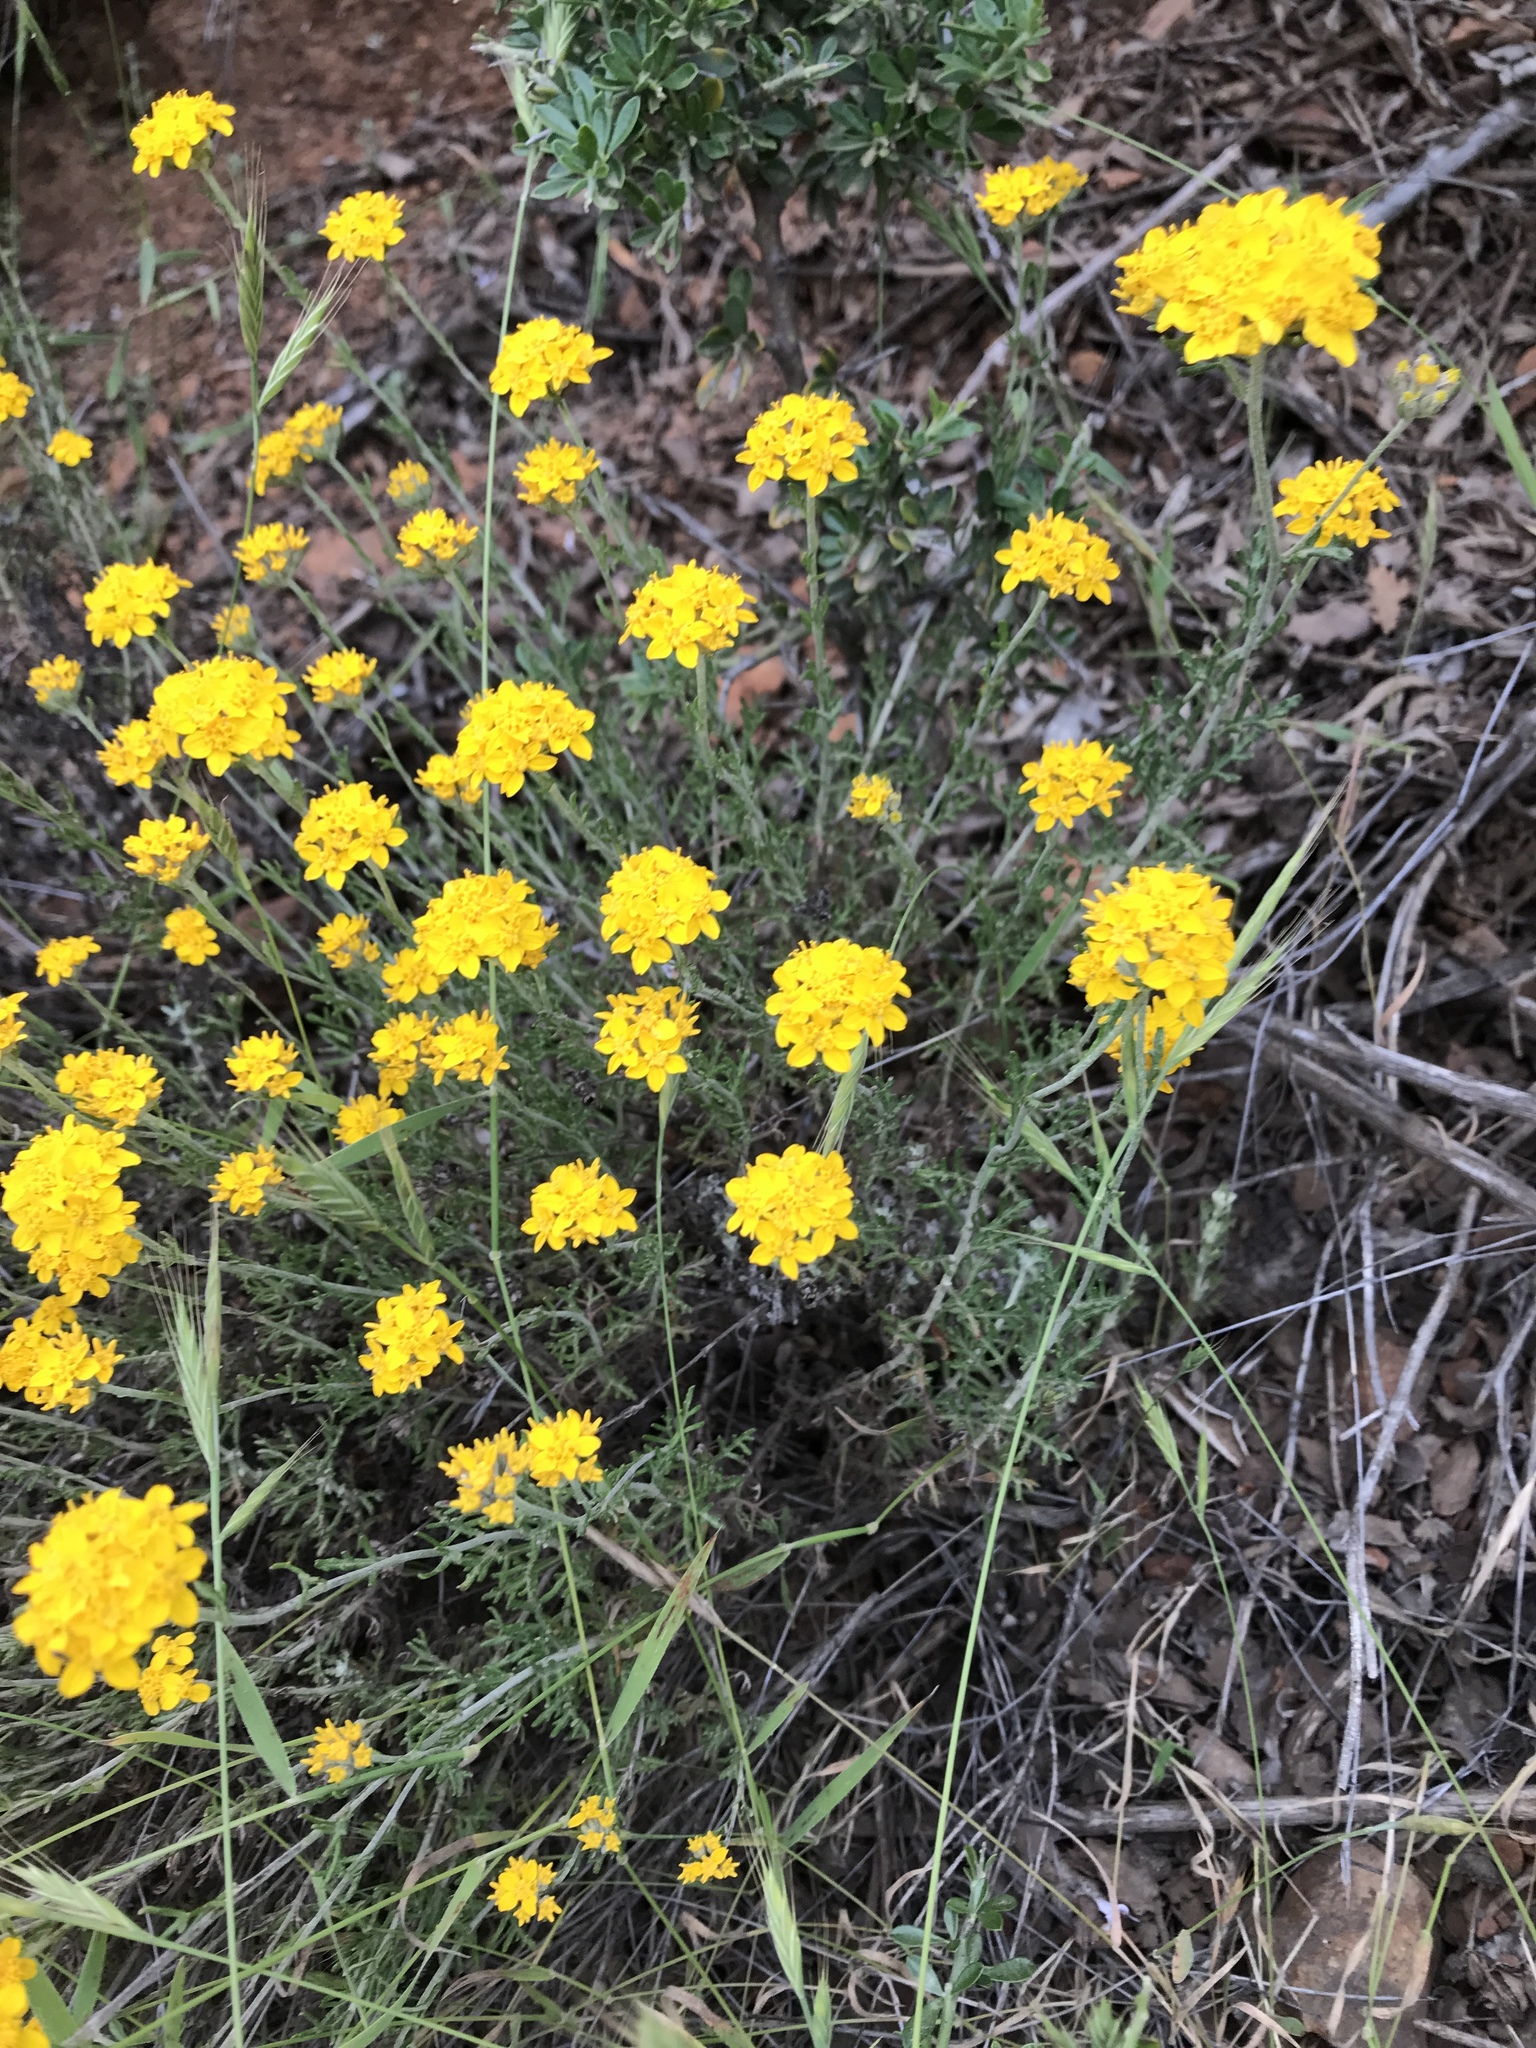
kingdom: Plantae
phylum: Tracheophyta
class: Magnoliopsida
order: Asterales
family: Asteraceae
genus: Eriophyllum
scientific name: Eriophyllum confertiflorum
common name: Golden-yarrow
